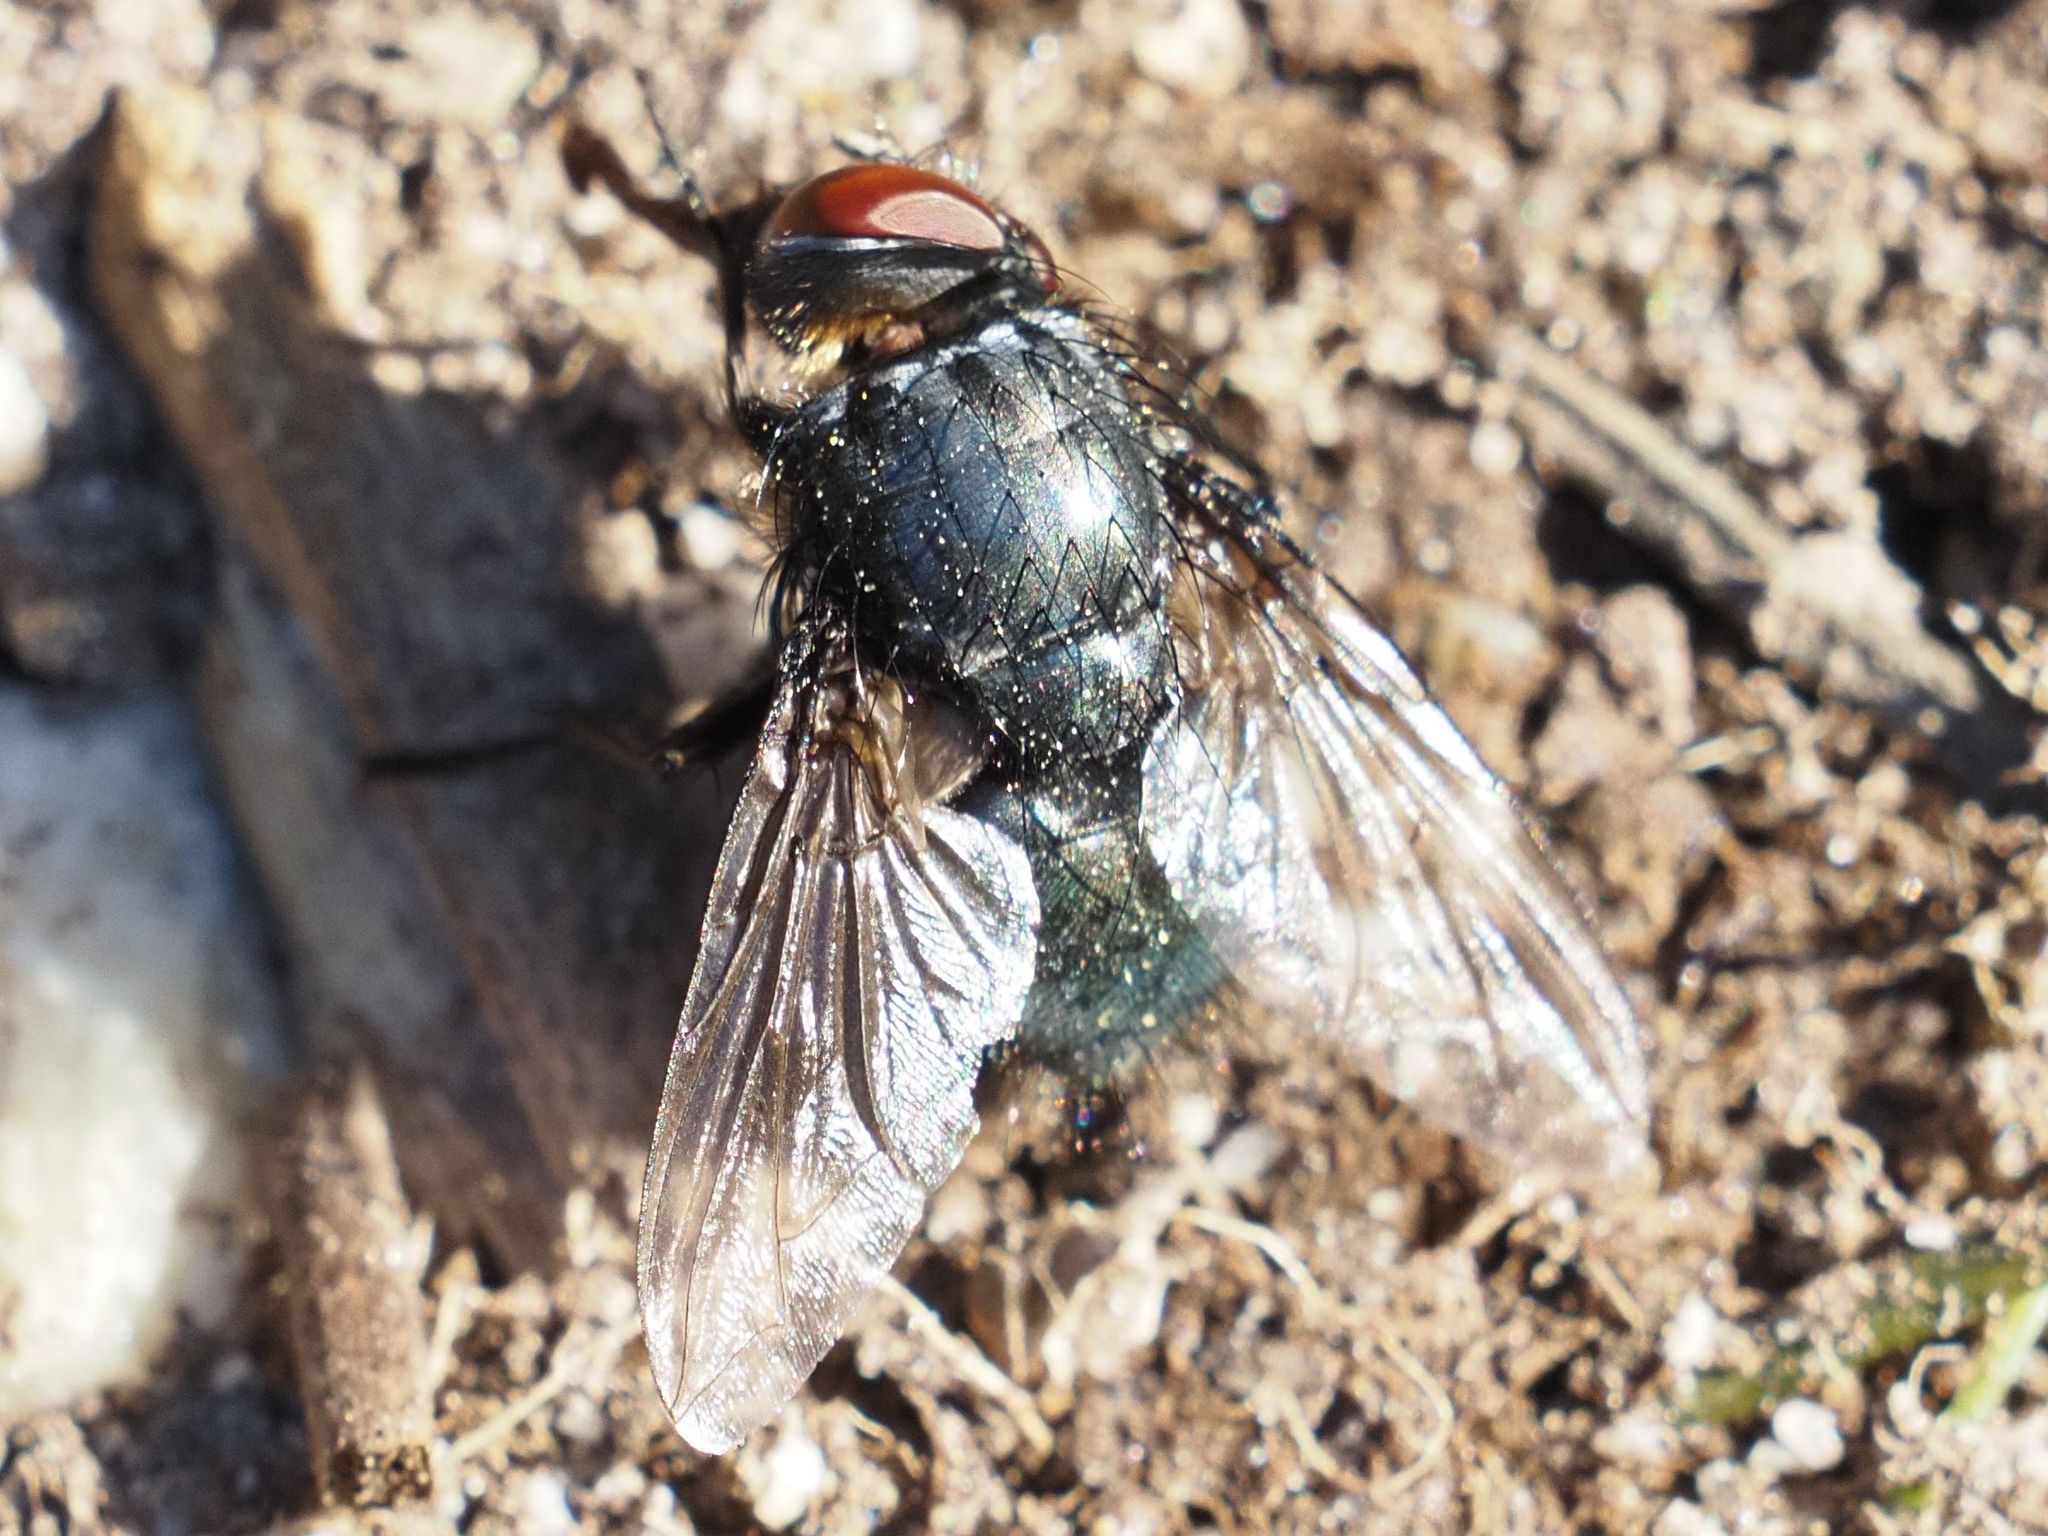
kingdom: Animalia
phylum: Arthropoda
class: Insecta
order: Diptera
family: Calliphoridae
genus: Melinda
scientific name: Melinda gentilis
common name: Pale-palped melinda
